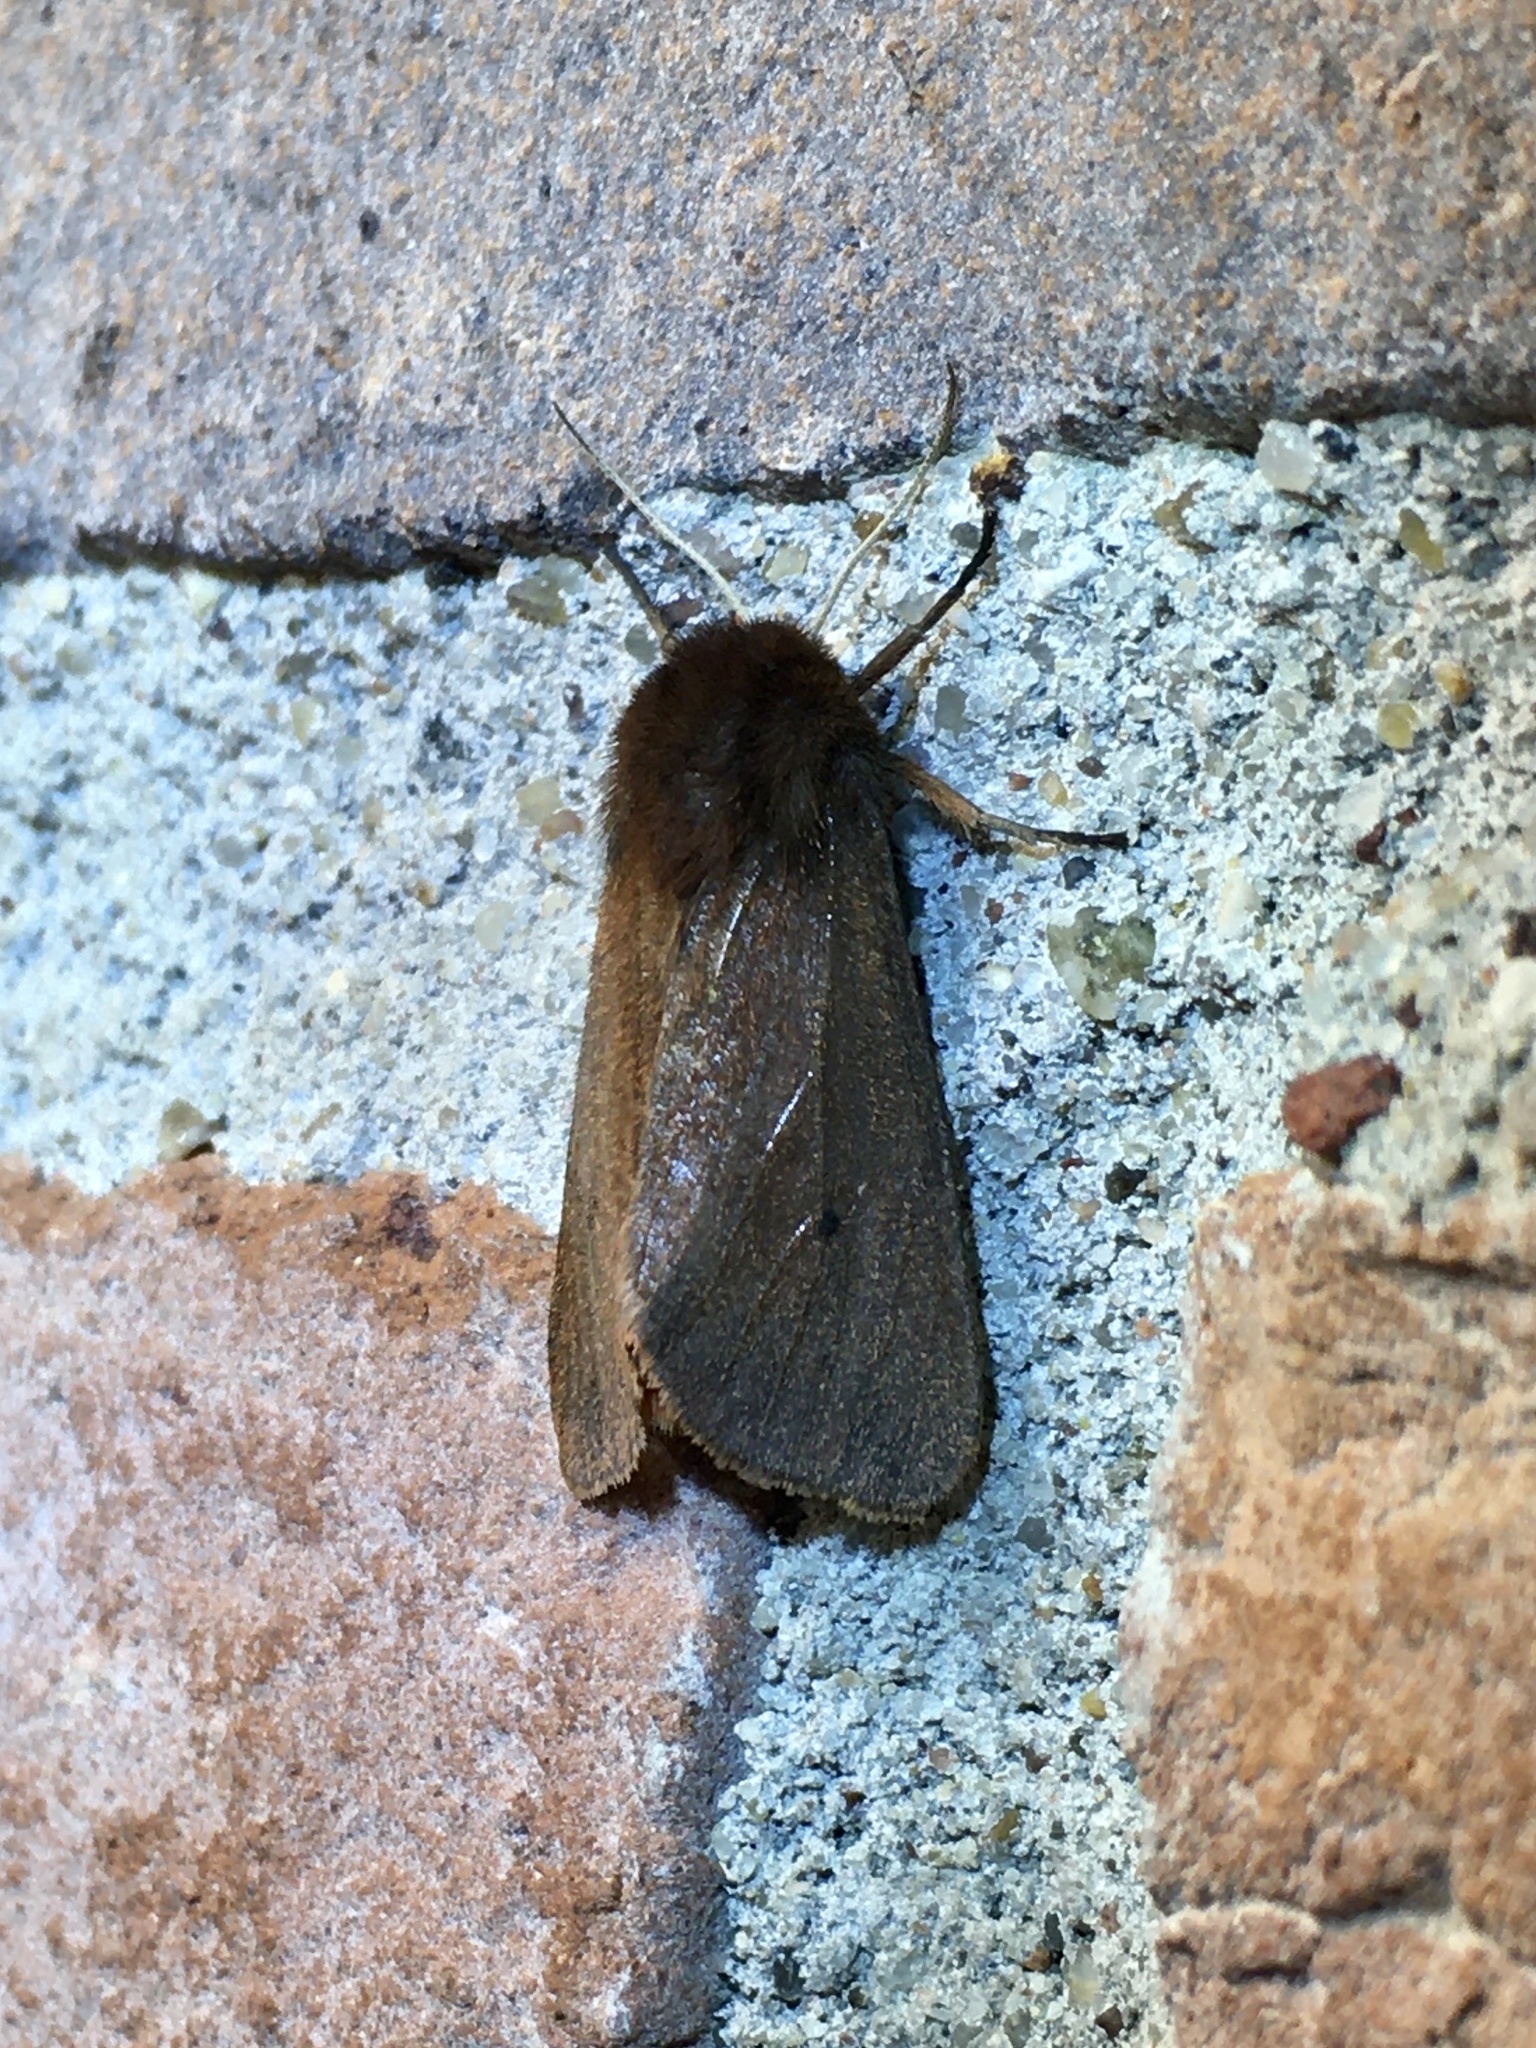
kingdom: Animalia
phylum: Arthropoda
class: Insecta
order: Lepidoptera
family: Erebidae
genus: Phragmatobia
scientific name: Phragmatobia fuliginosa
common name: Ruby tiger
